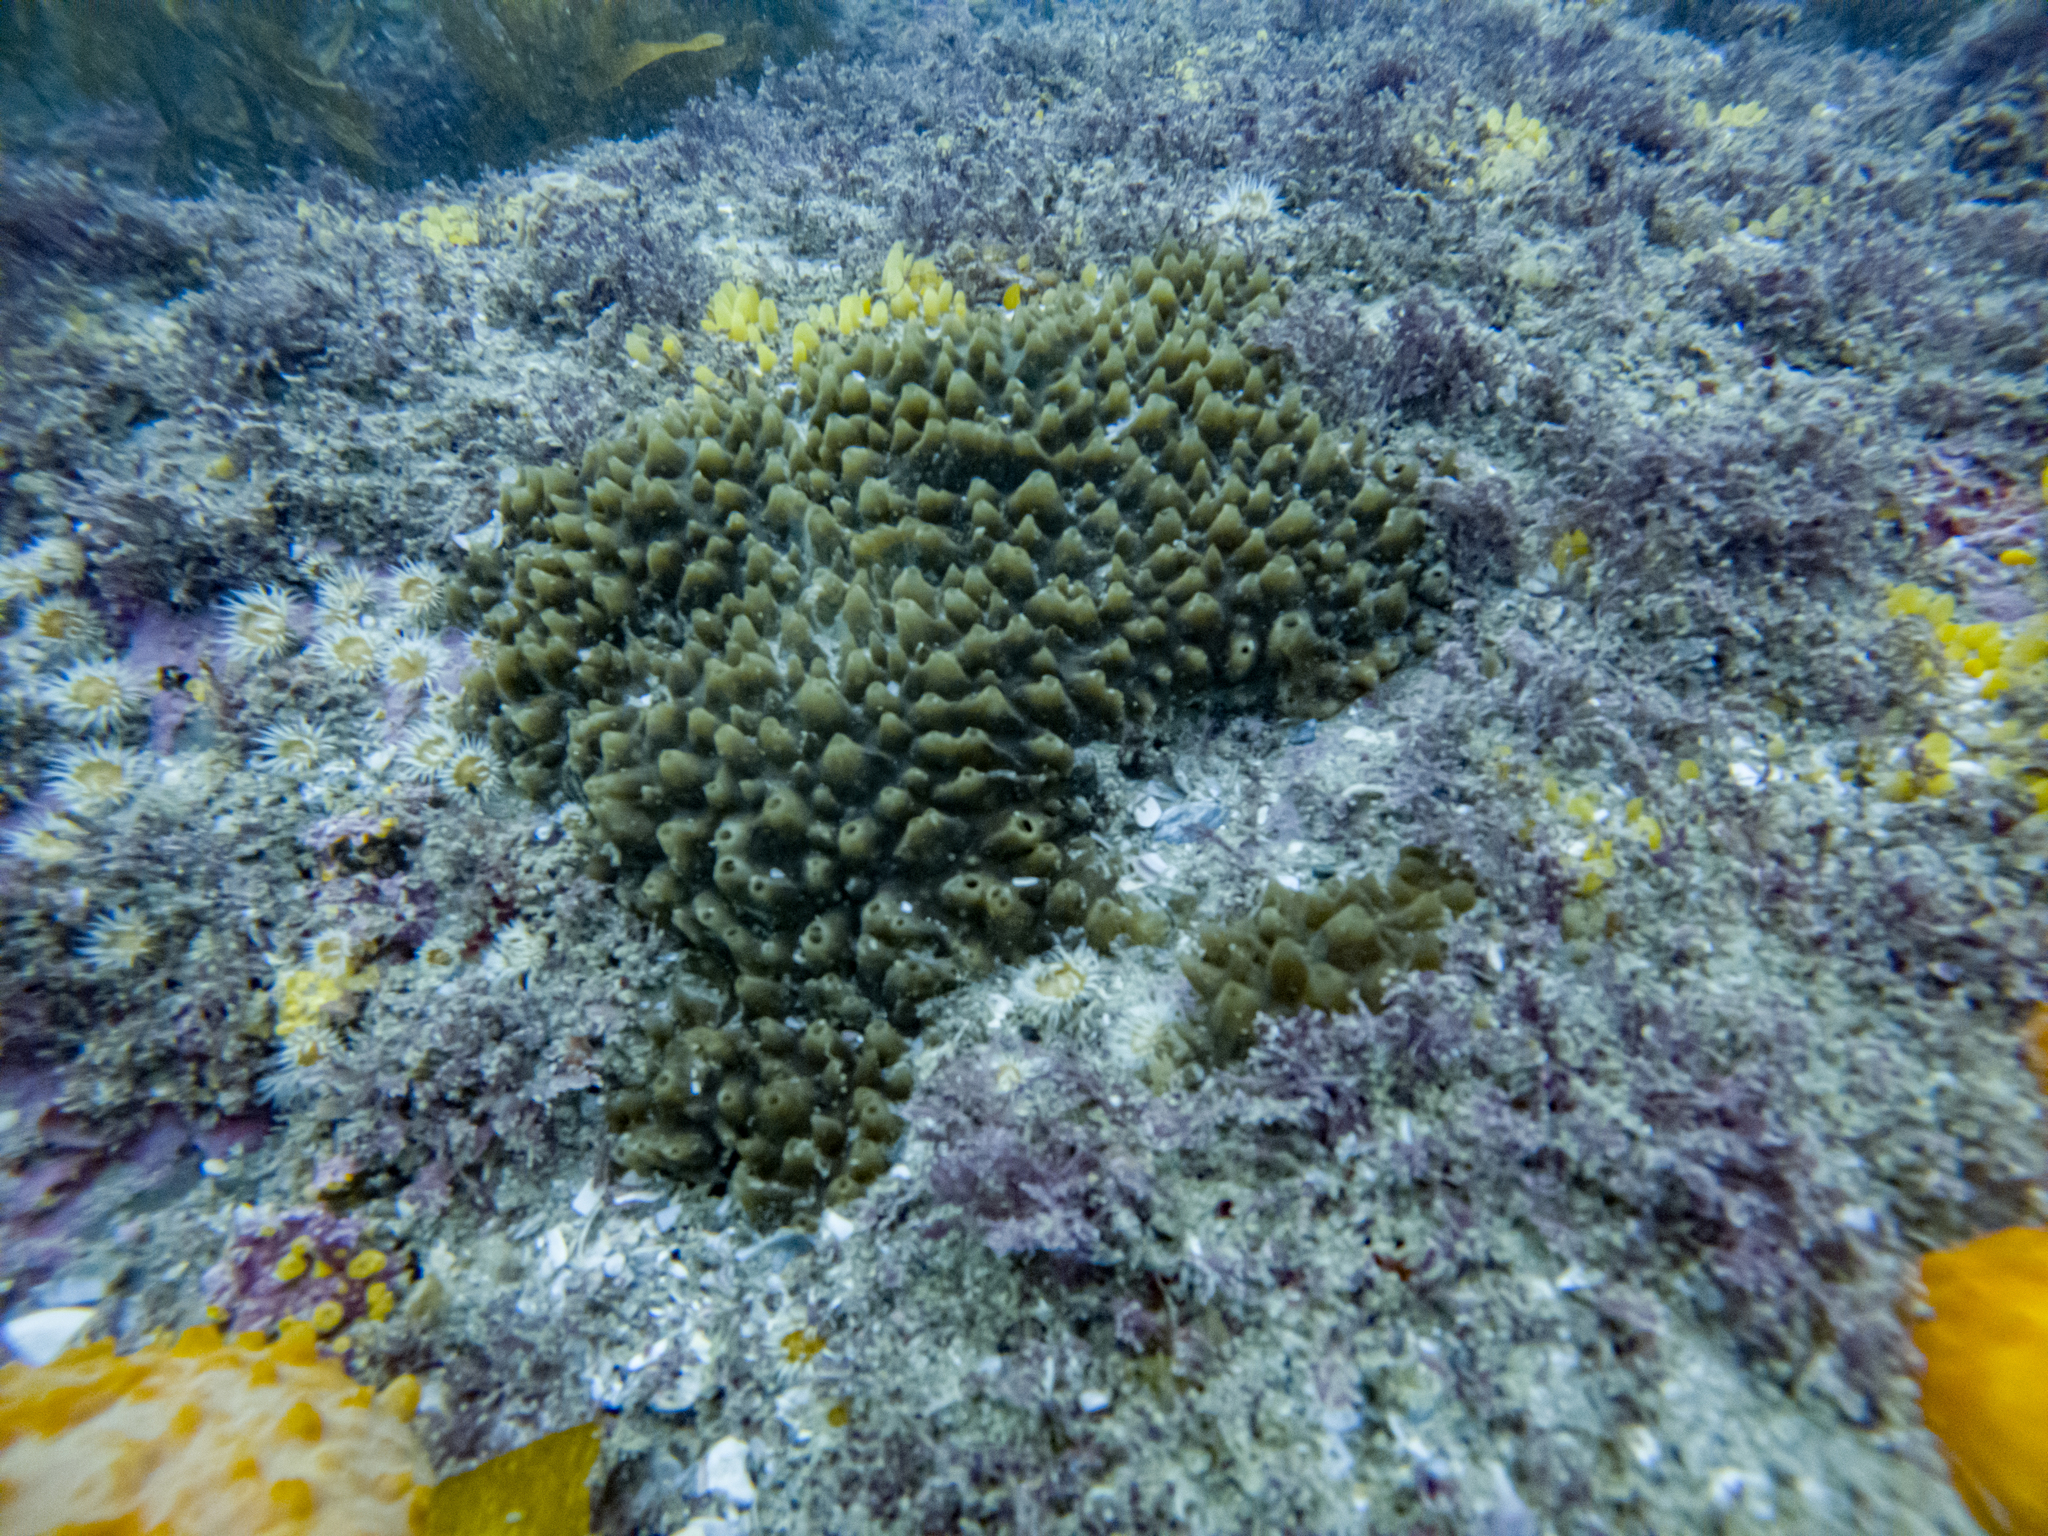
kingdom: Animalia
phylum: Porifera
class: Demospongiae
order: Polymastiida
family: Polymastiidae
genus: Polymastia
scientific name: Polymastia fusca
